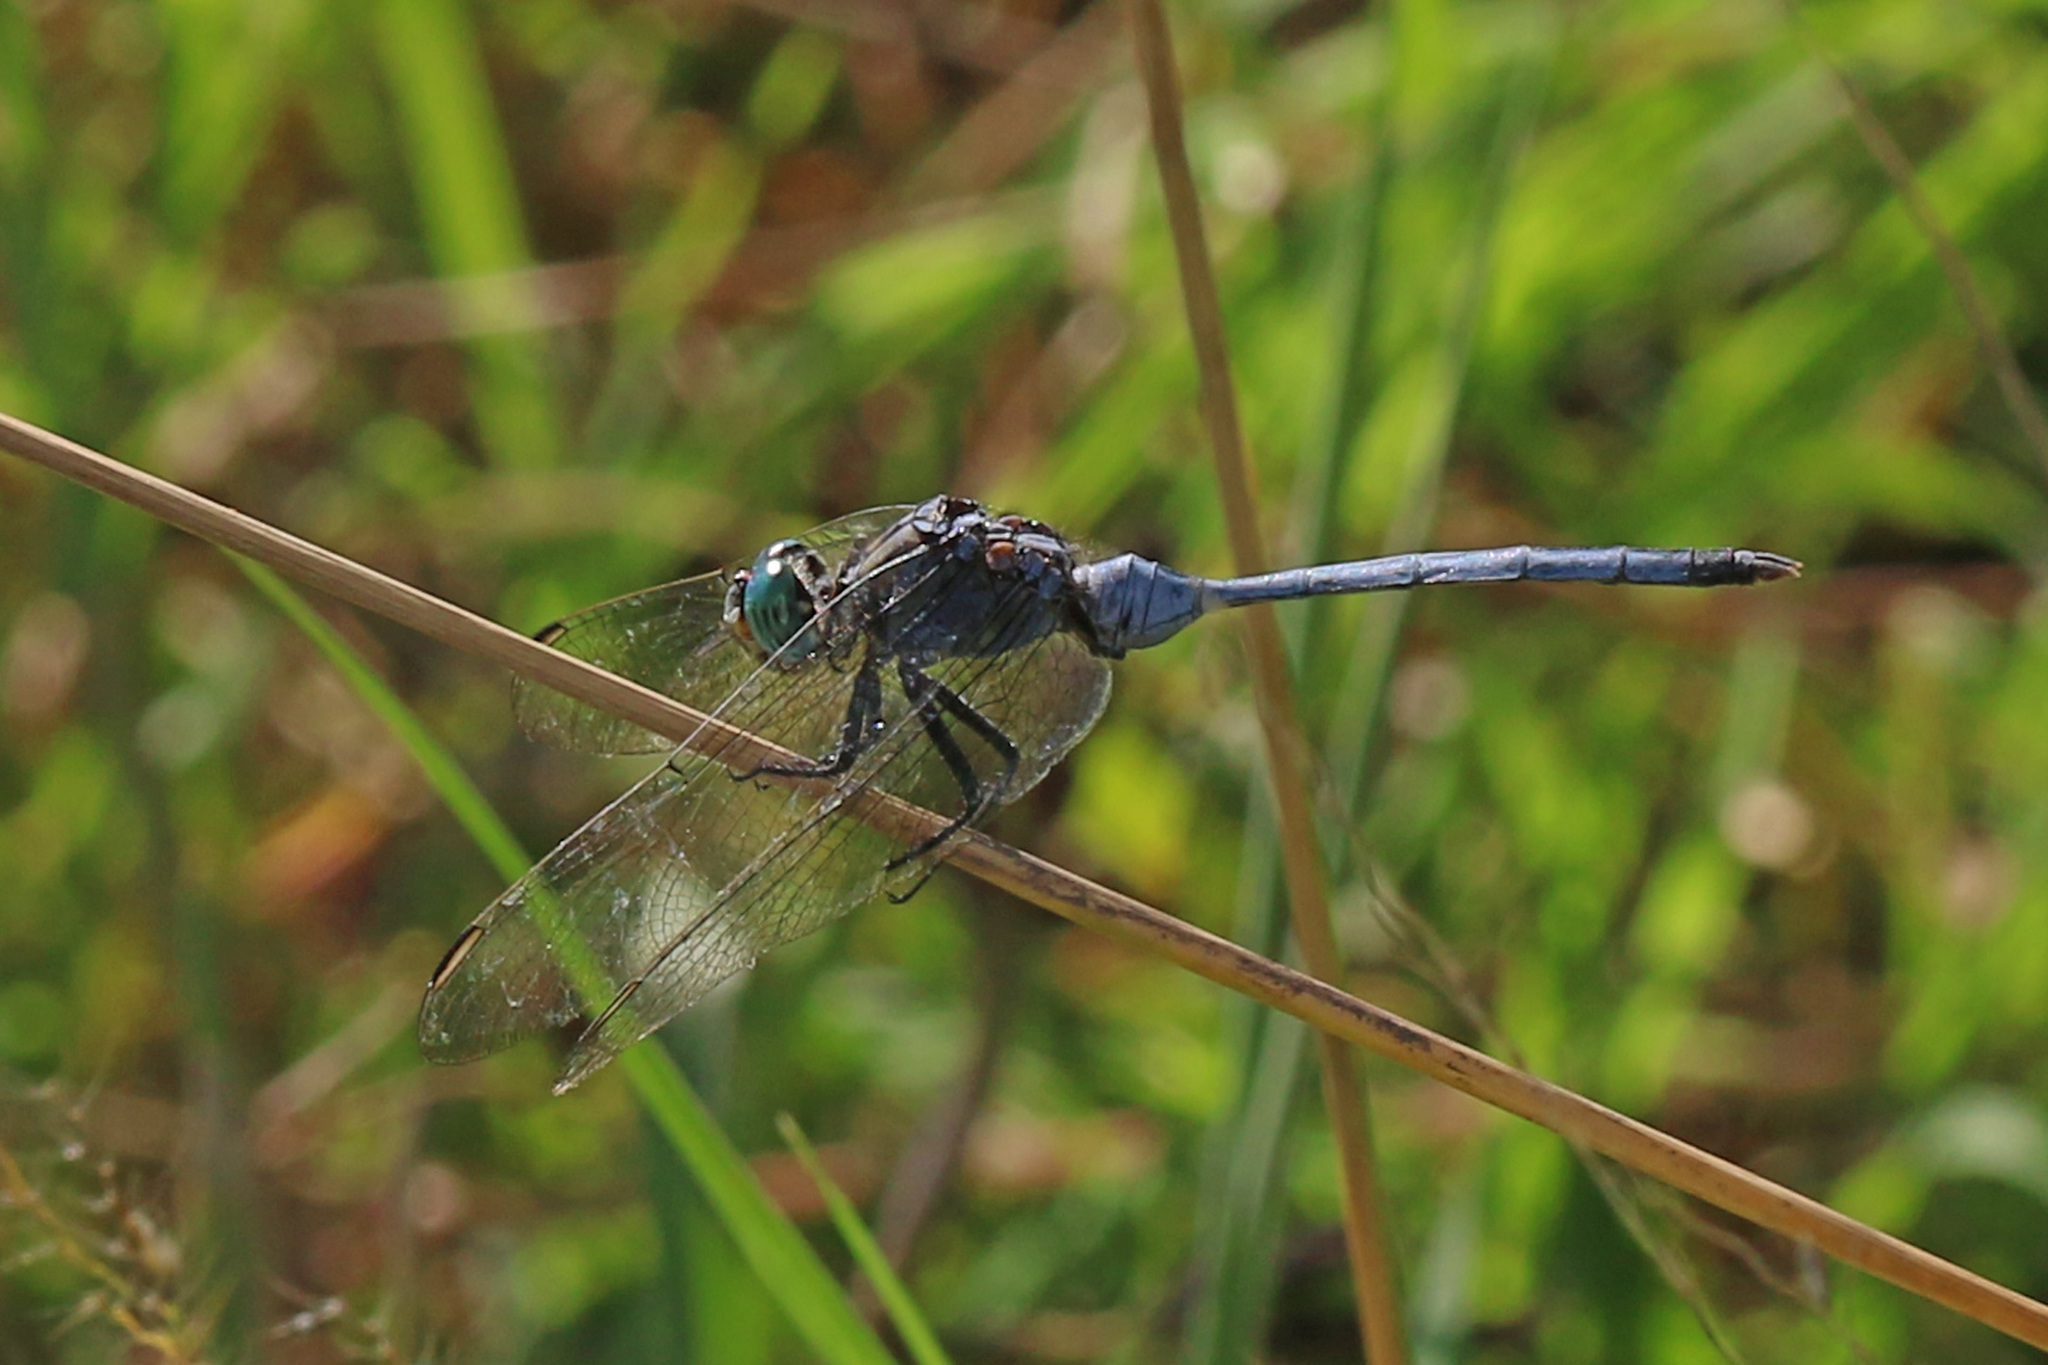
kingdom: Animalia
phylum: Arthropoda
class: Insecta
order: Odonata
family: Libellulidae
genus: Orthetrum
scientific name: Orthetrum trinacria
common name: Long skimmer
